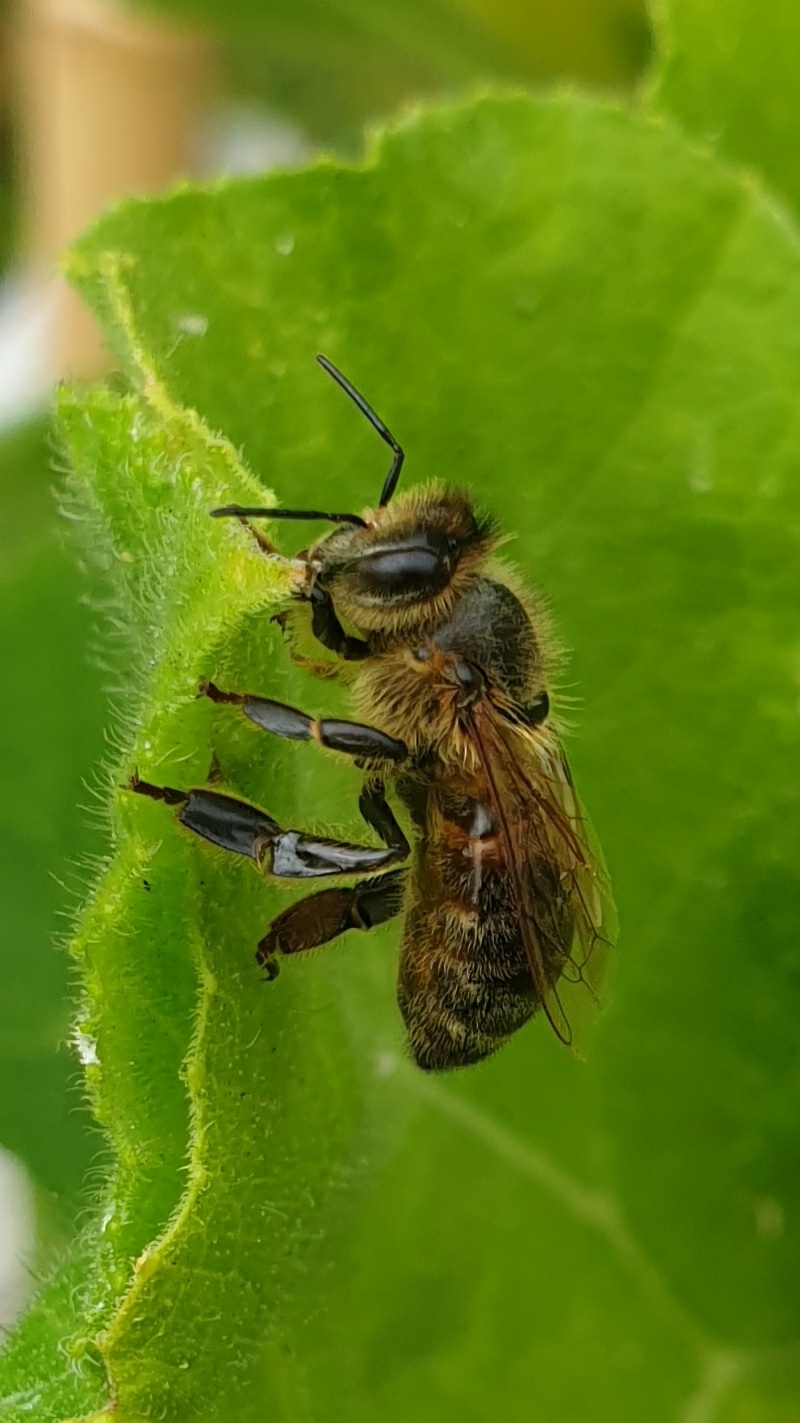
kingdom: Animalia
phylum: Arthropoda
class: Insecta
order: Hymenoptera
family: Apidae
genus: Apis
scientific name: Apis mellifera
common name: Honey bee
